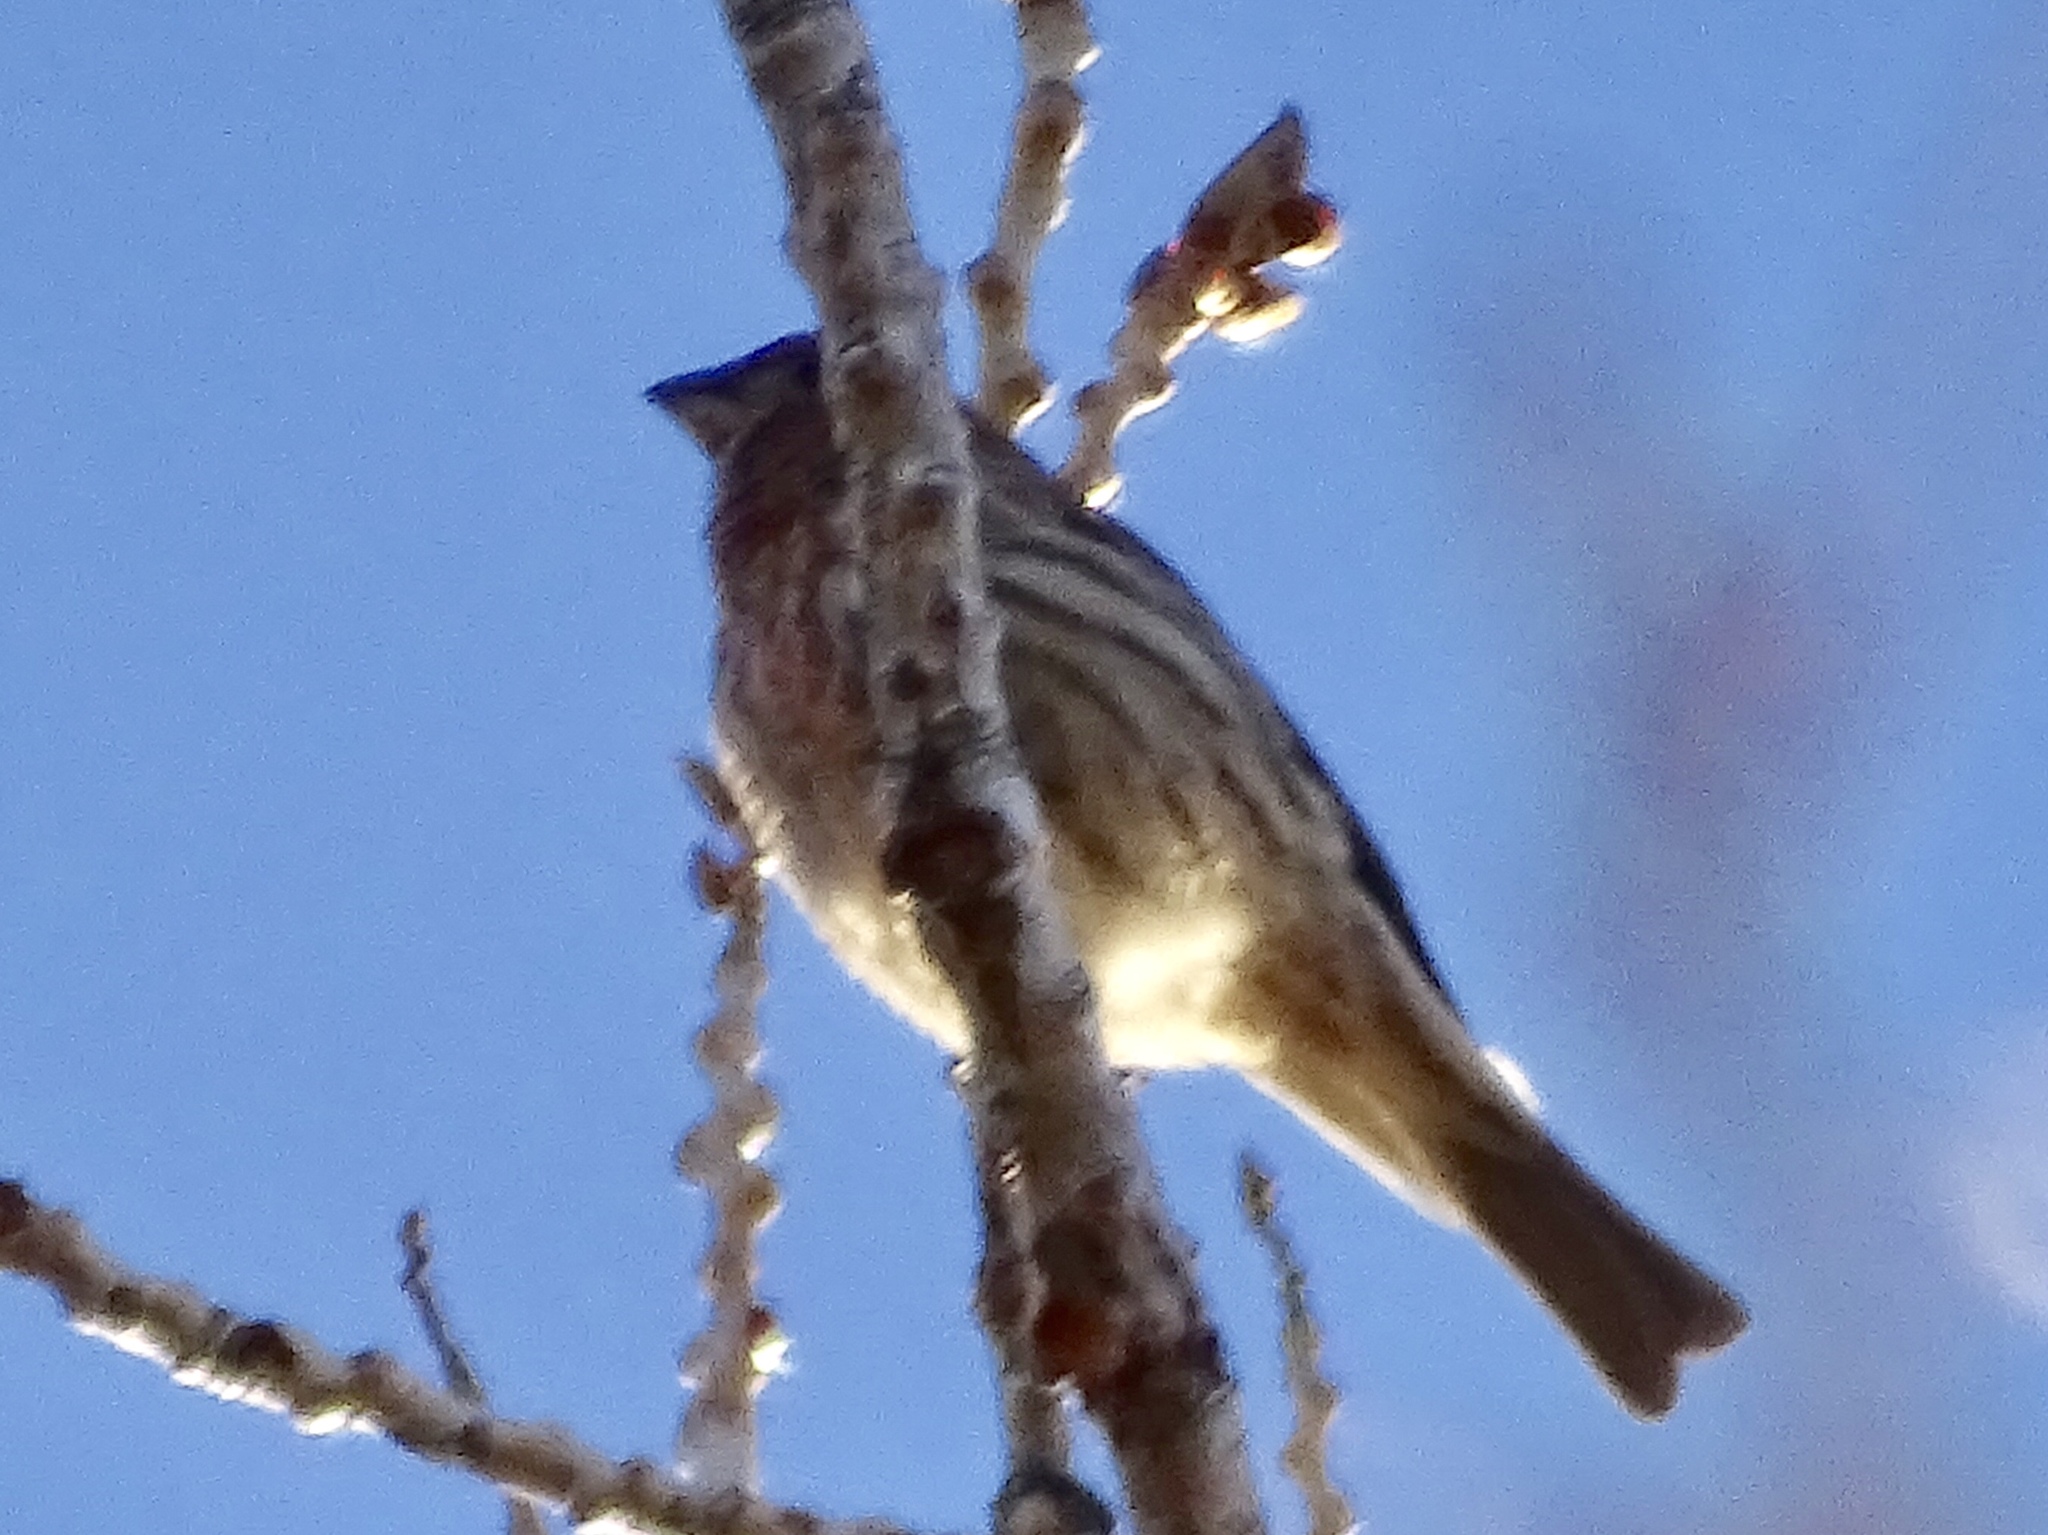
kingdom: Animalia
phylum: Chordata
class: Aves
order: Passeriformes
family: Fringillidae
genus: Haemorhous
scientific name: Haemorhous mexicanus
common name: House finch
